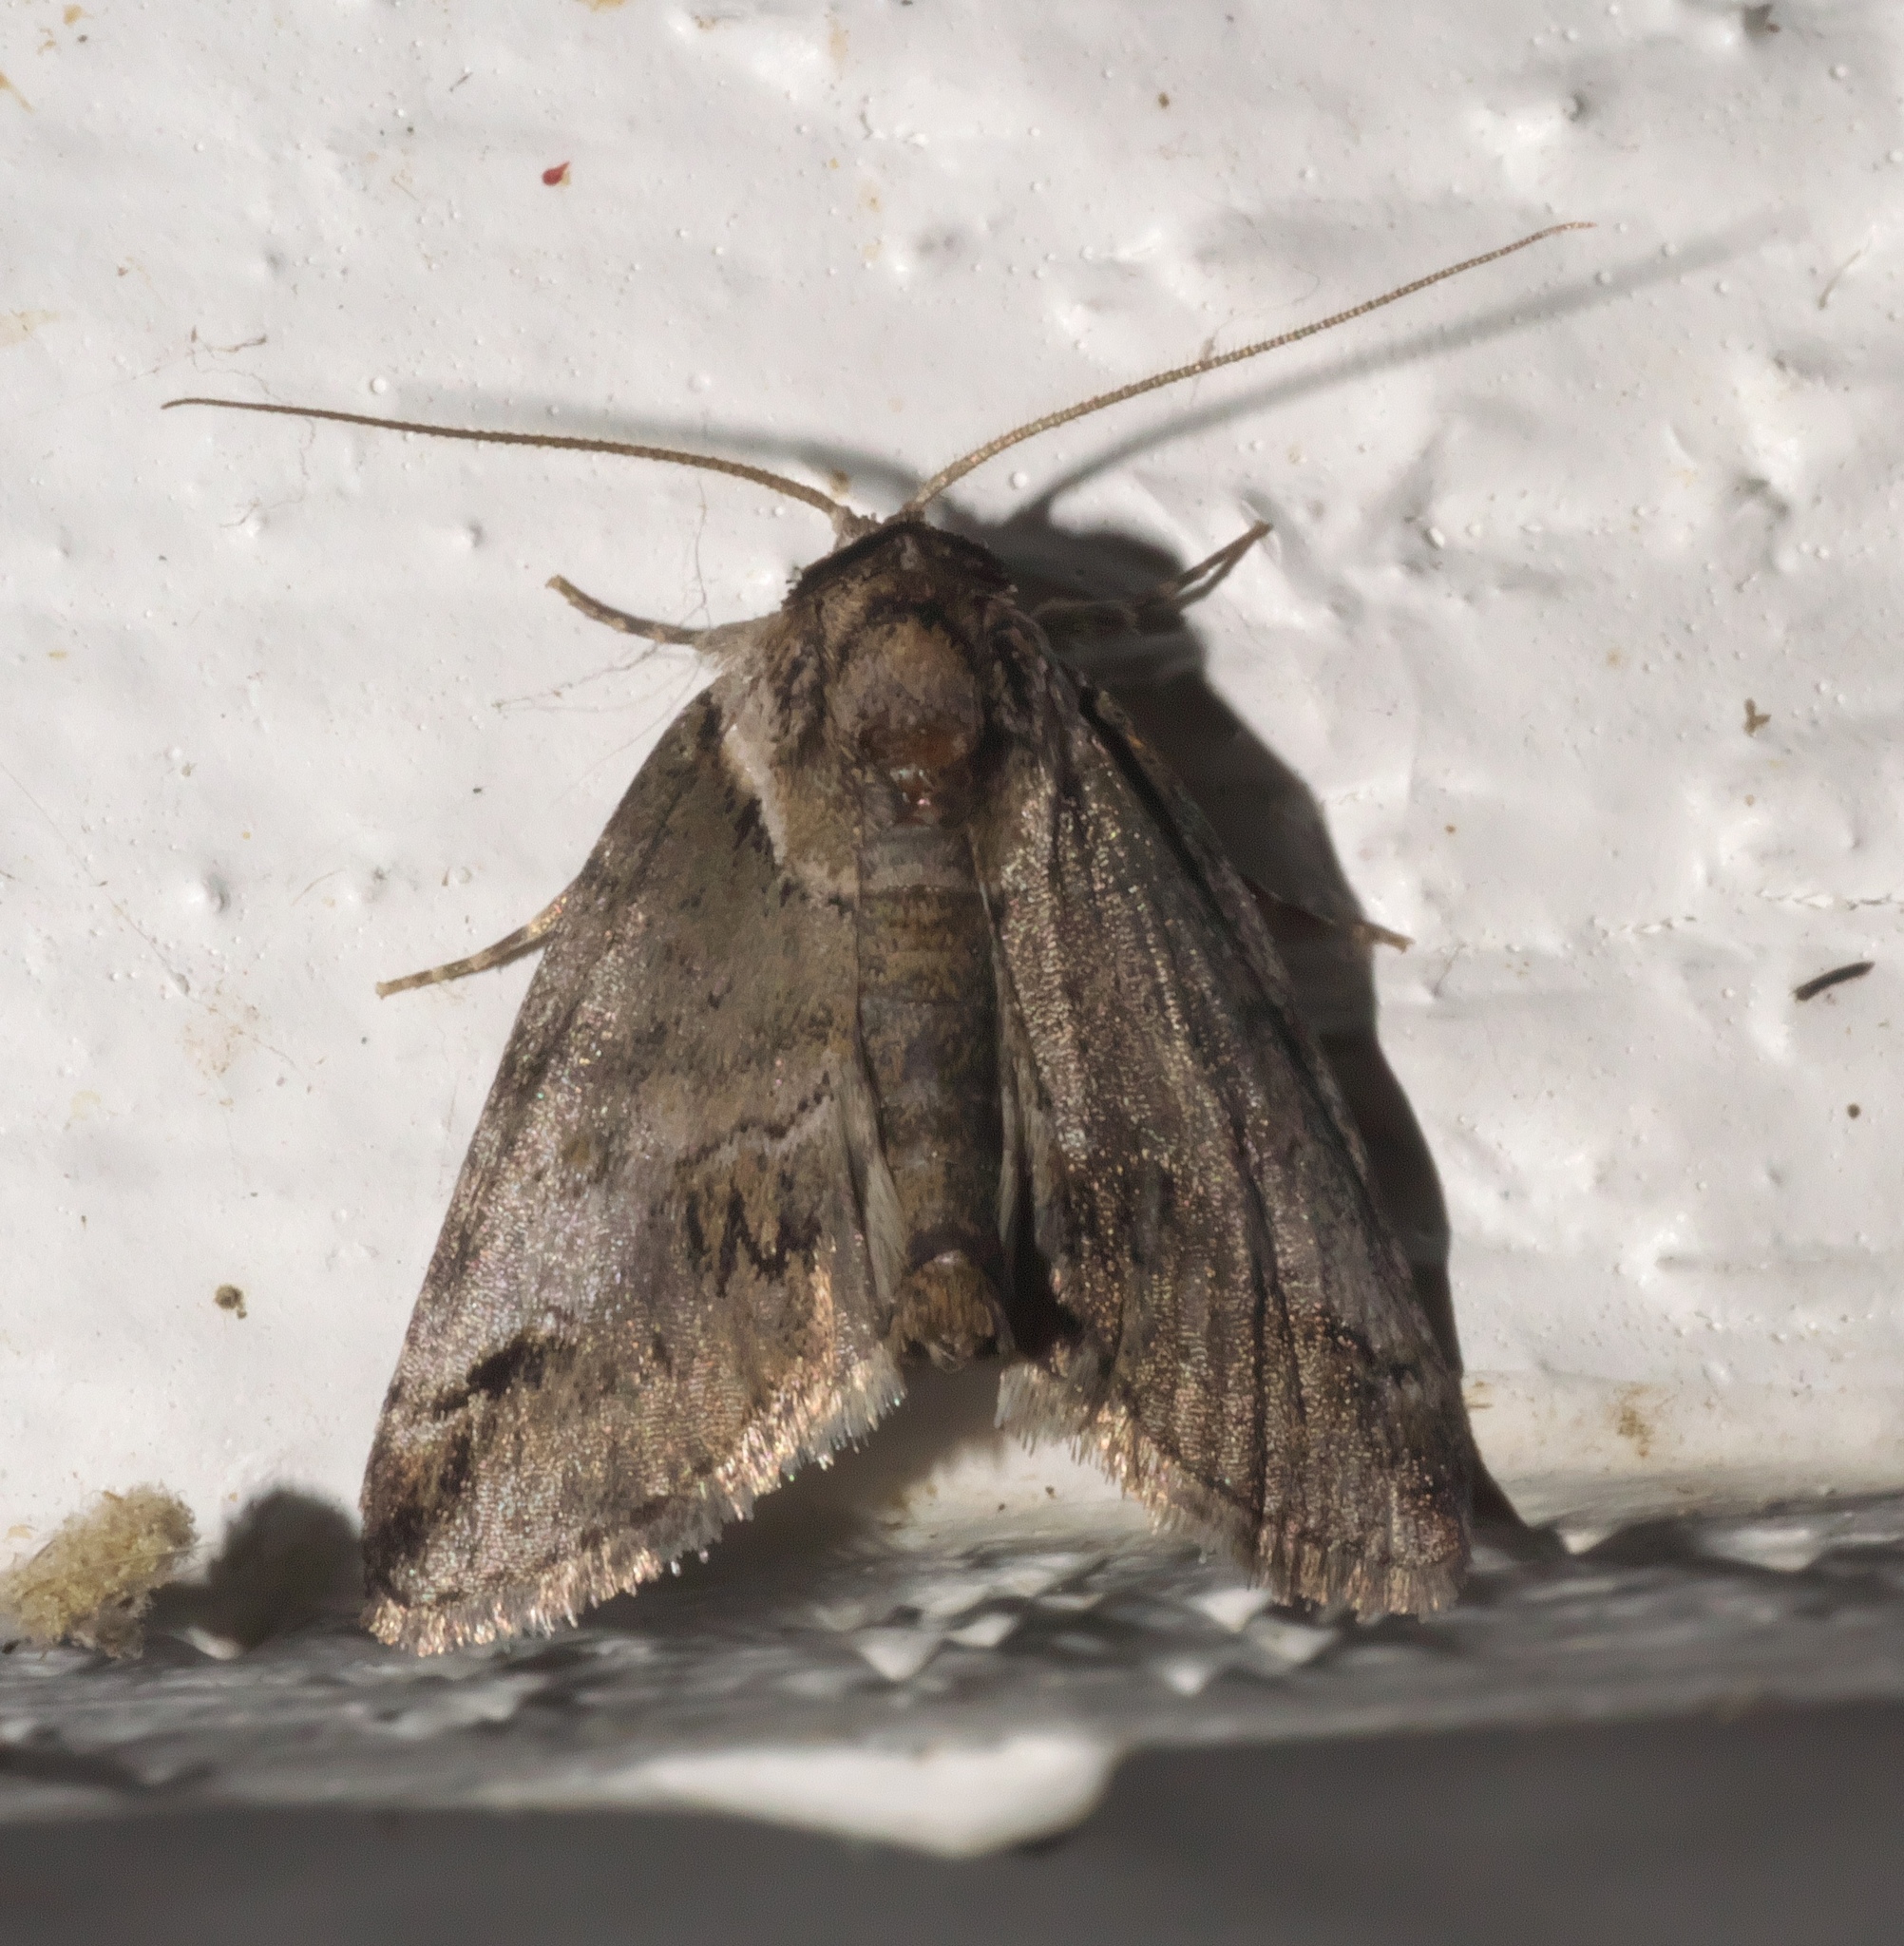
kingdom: Animalia
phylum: Arthropoda
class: Insecta
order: Lepidoptera
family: Nolidae
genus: Baileya
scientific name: Baileya australis
